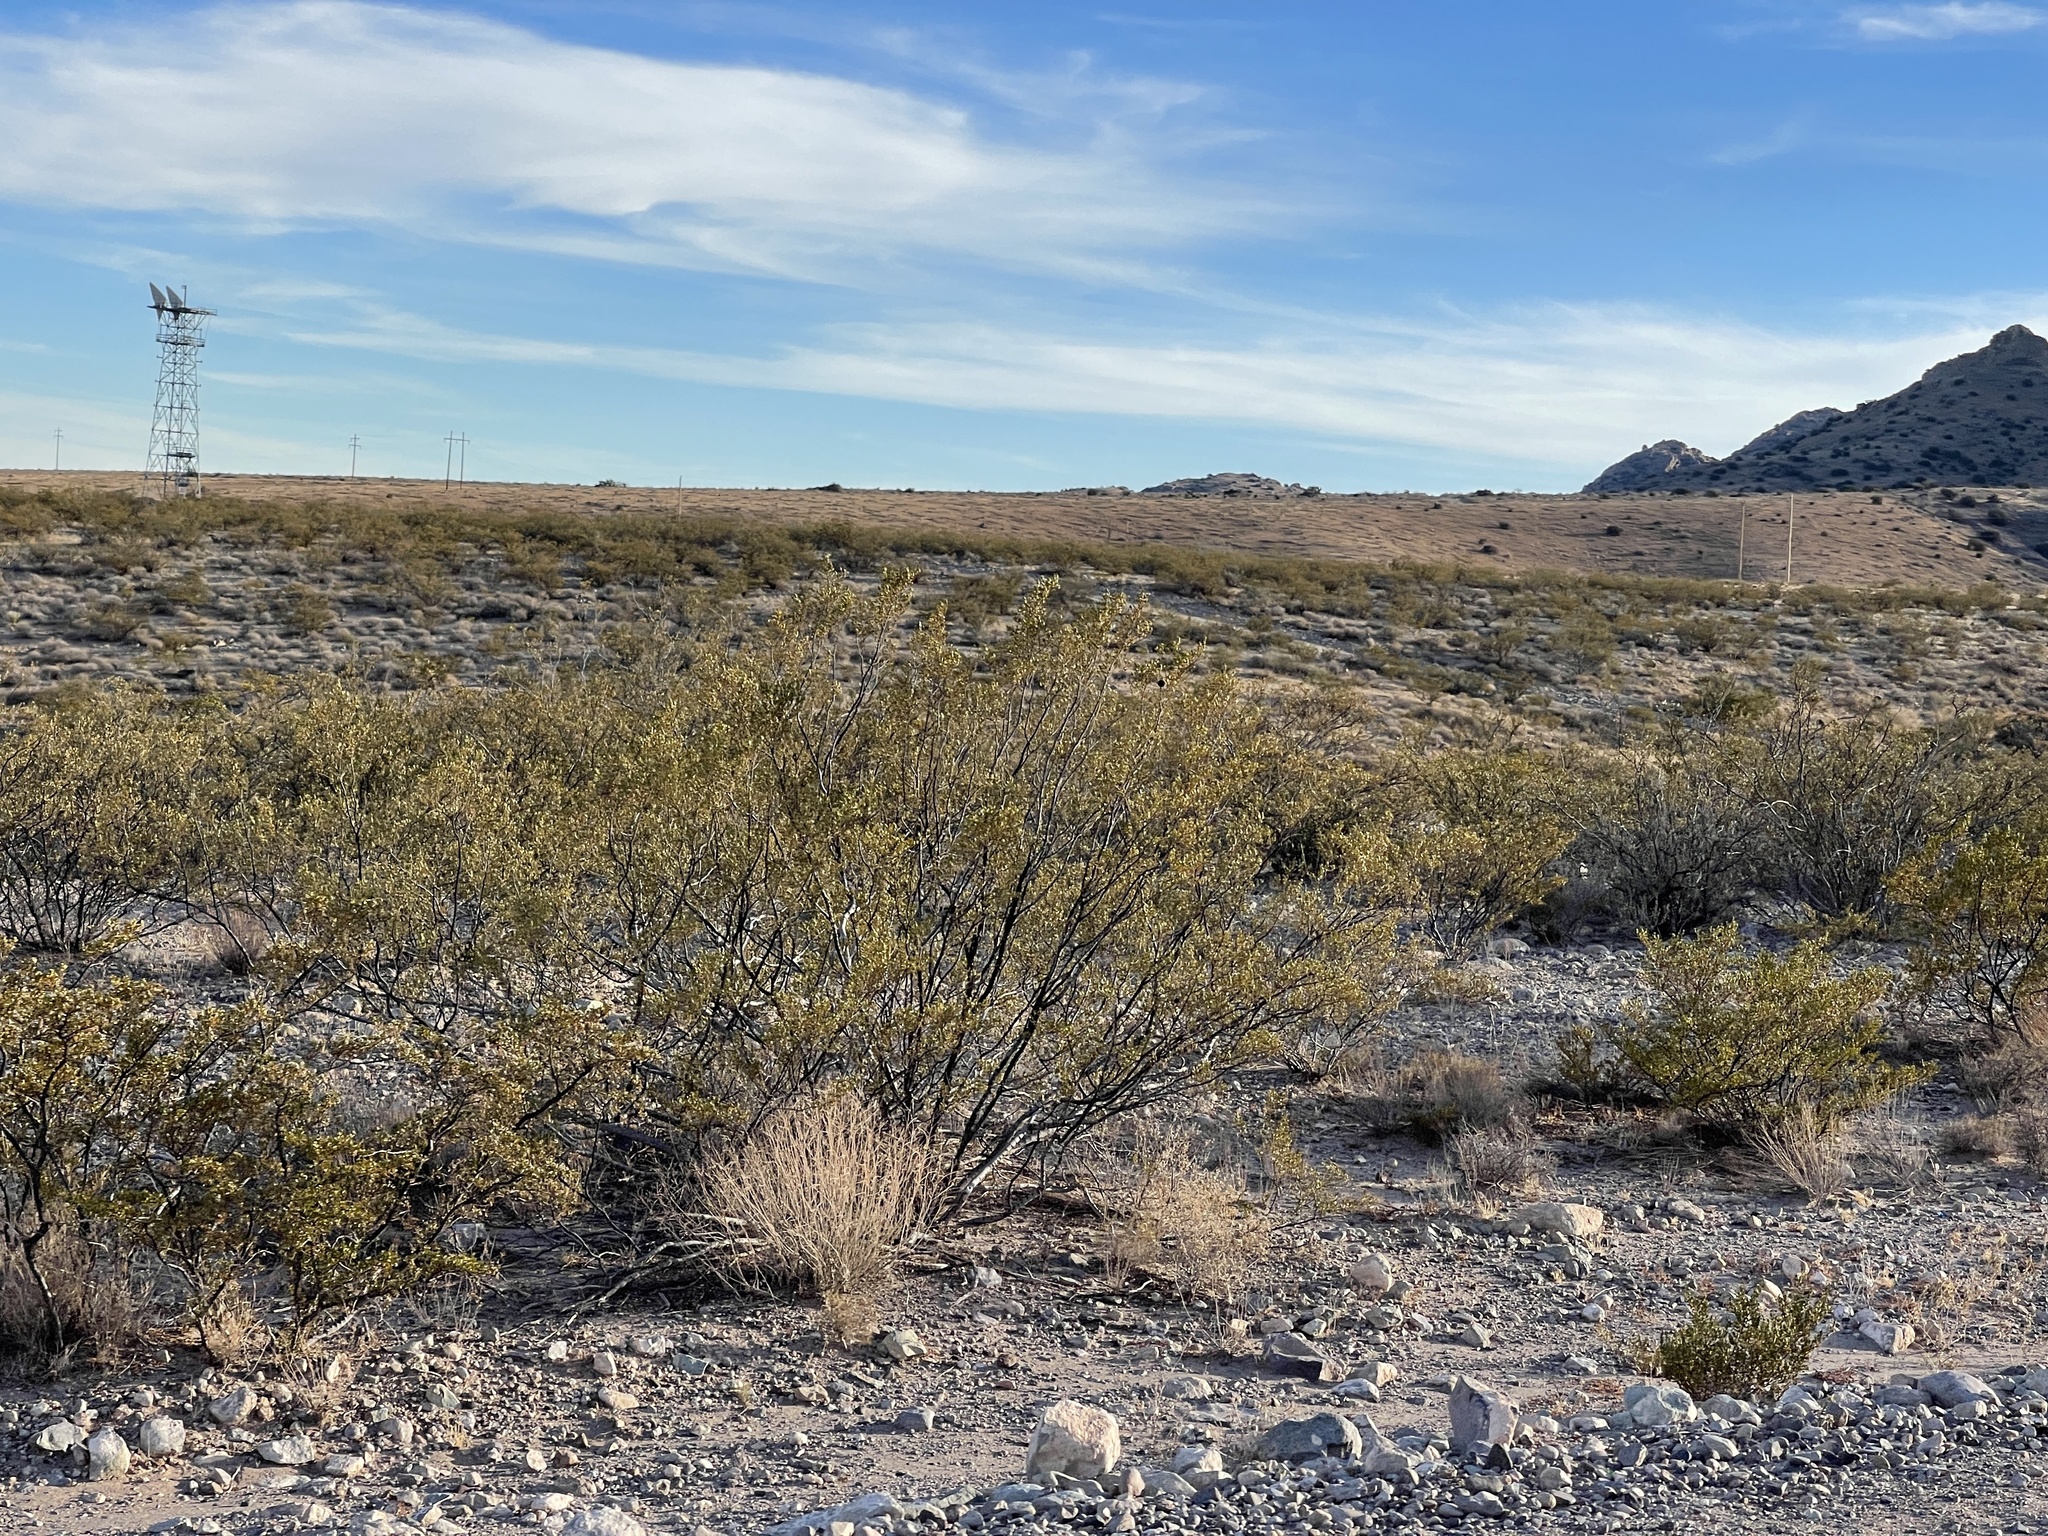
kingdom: Plantae
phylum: Tracheophyta
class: Magnoliopsida
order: Zygophyllales
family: Zygophyllaceae
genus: Larrea
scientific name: Larrea tridentata
